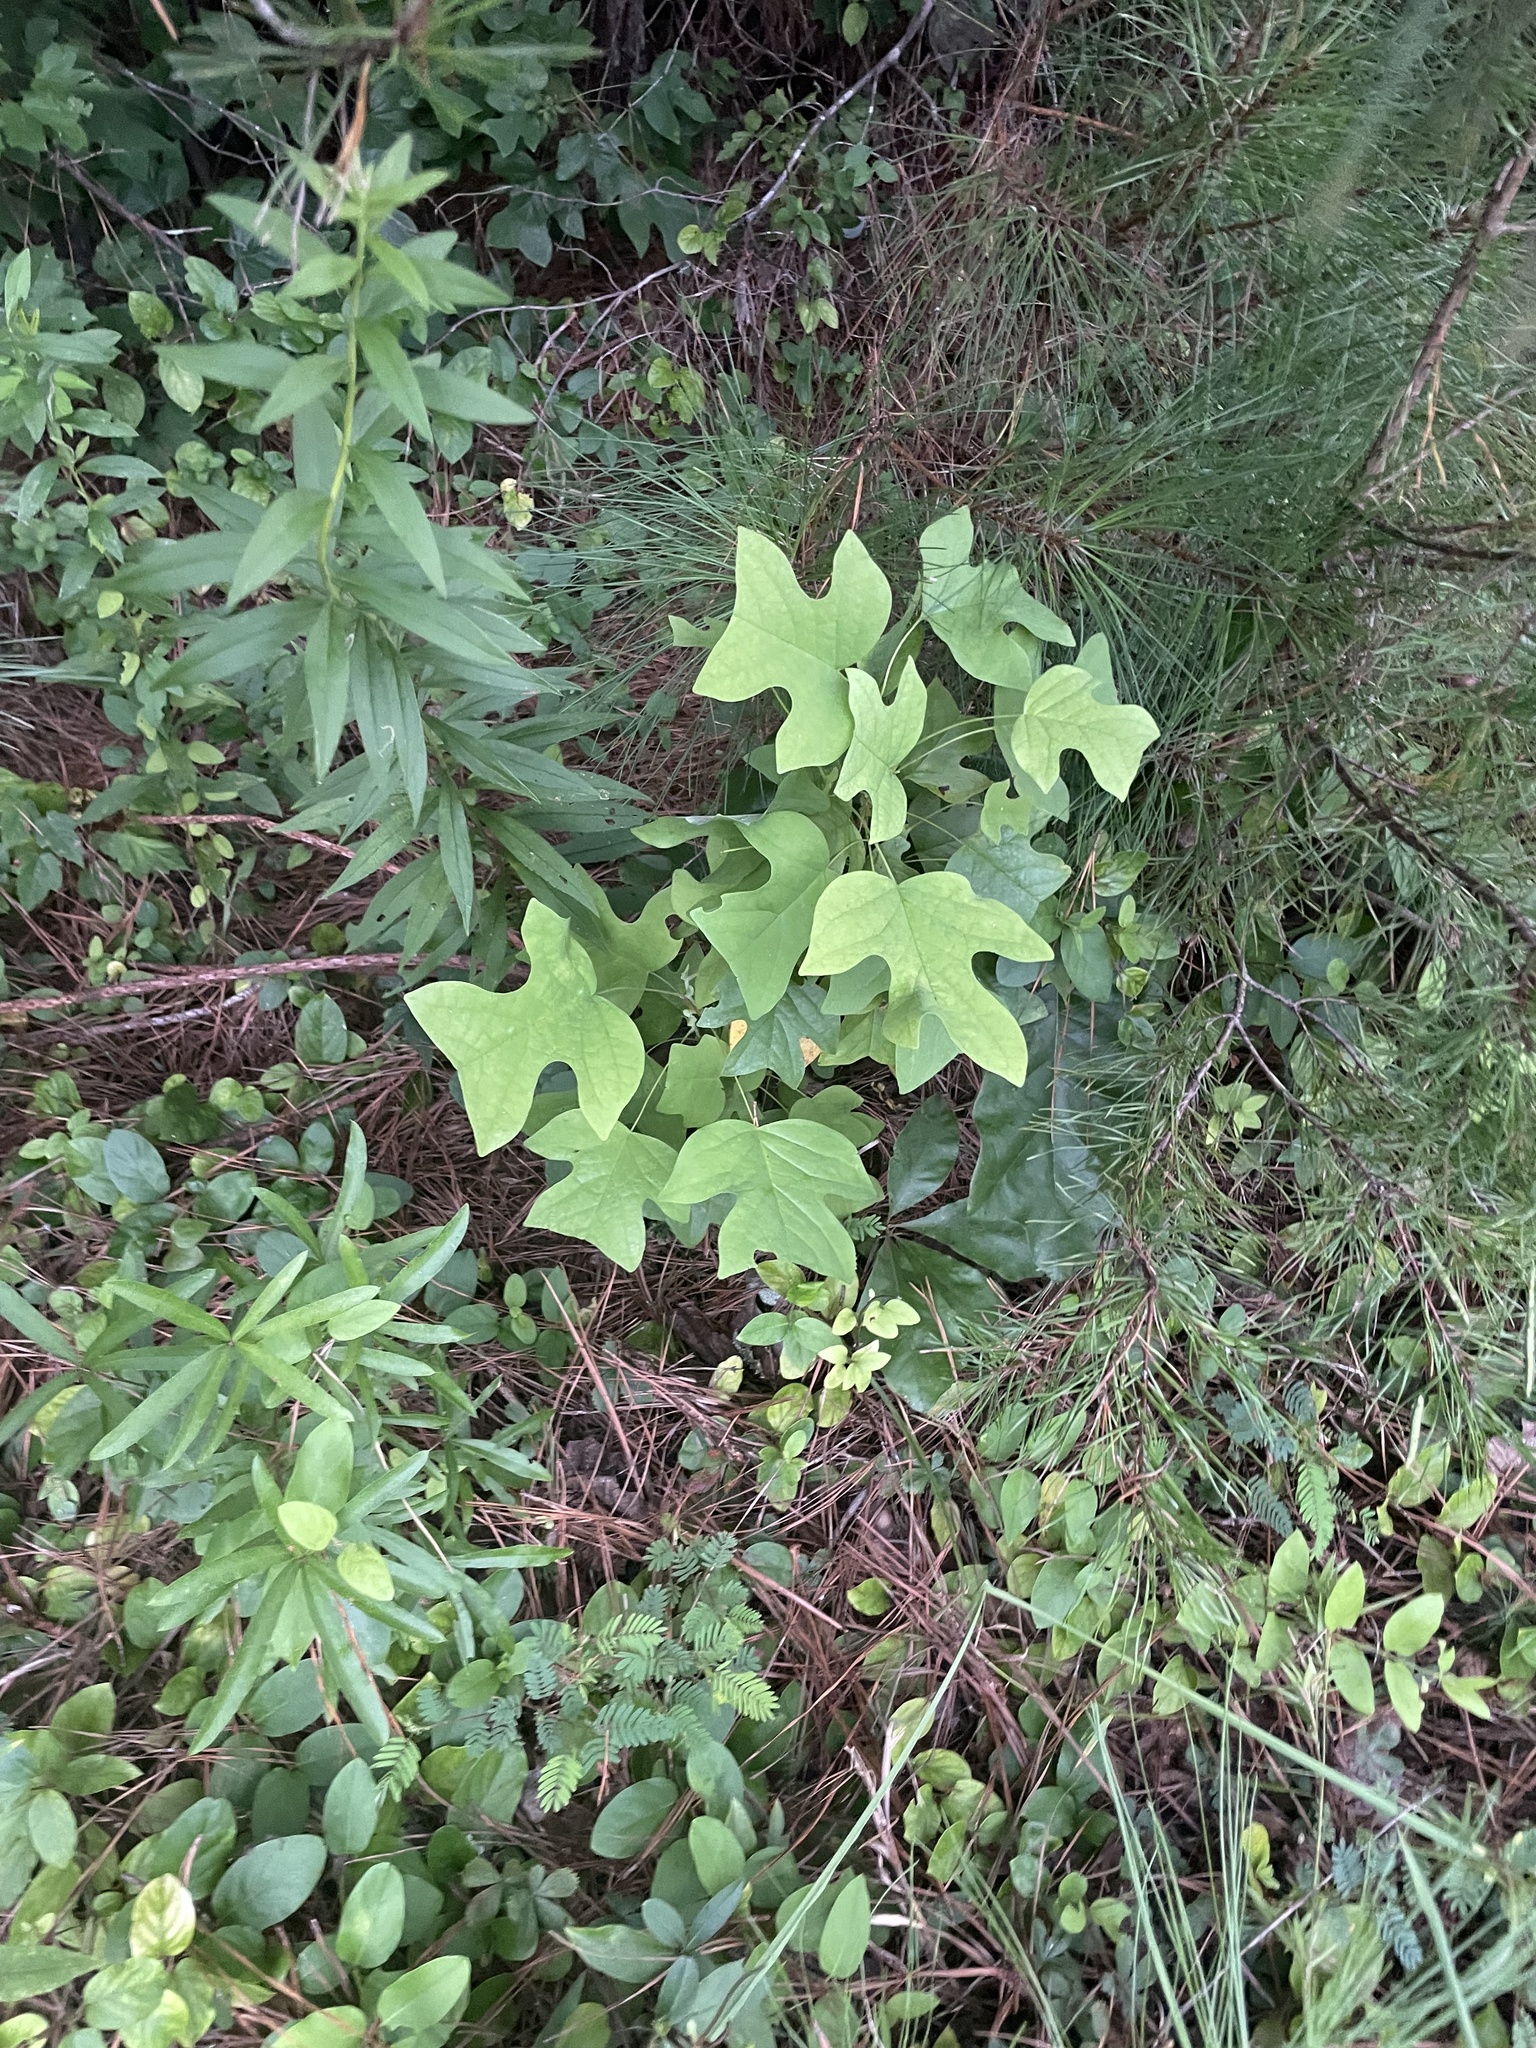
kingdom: Plantae
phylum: Tracheophyta
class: Magnoliopsida
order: Magnoliales
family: Magnoliaceae
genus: Liriodendron
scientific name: Liriodendron tulipifera
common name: Tulip tree
